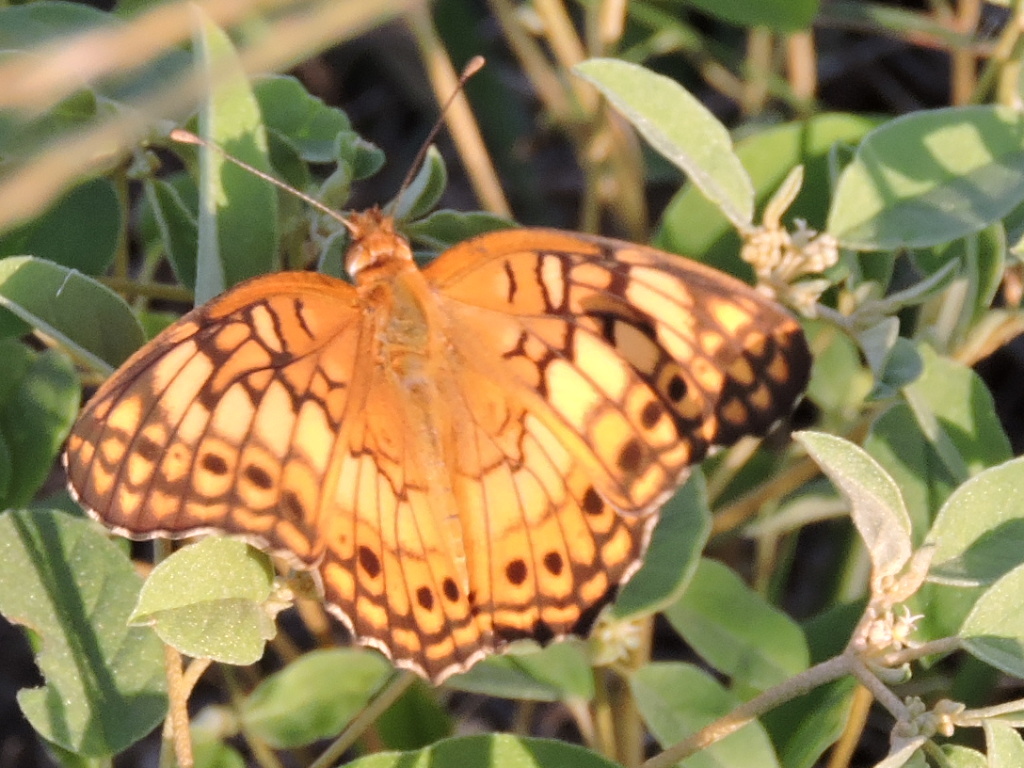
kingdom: Animalia
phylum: Arthropoda
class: Insecta
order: Lepidoptera
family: Nymphalidae
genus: Euptoieta
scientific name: Euptoieta claudia
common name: Variegated fritillary
